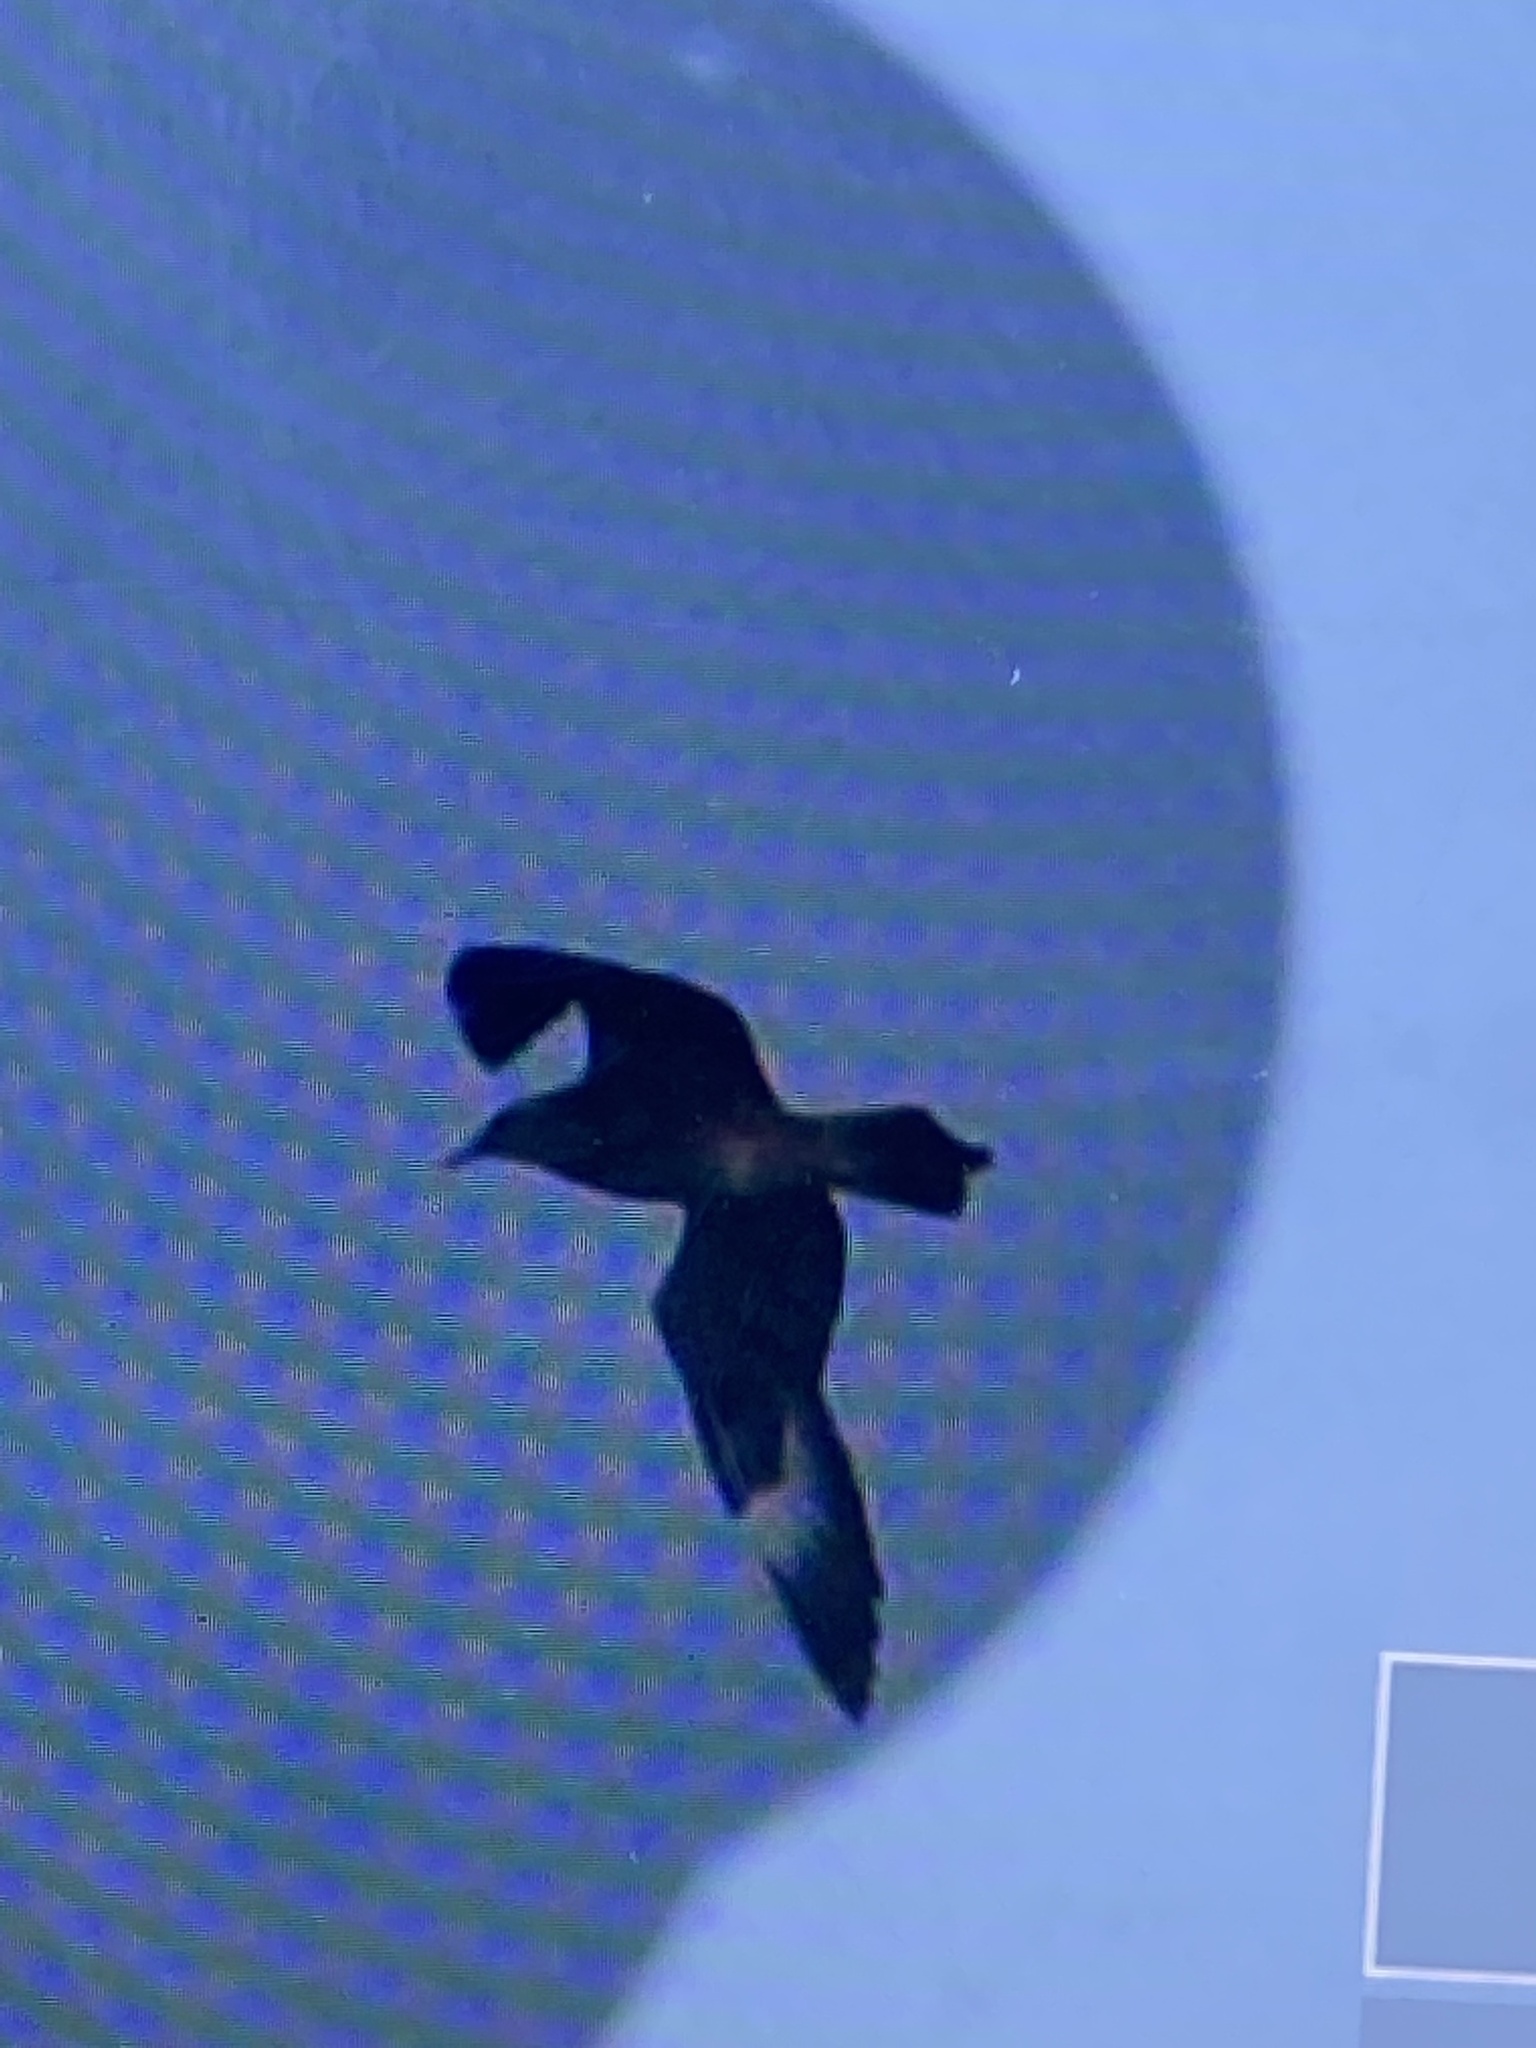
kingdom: Animalia
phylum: Chordata
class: Aves
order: Charadriiformes
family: Stercorariidae
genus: Stercorarius
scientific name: Stercorarius parasiticus
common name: Parasitic jaeger
